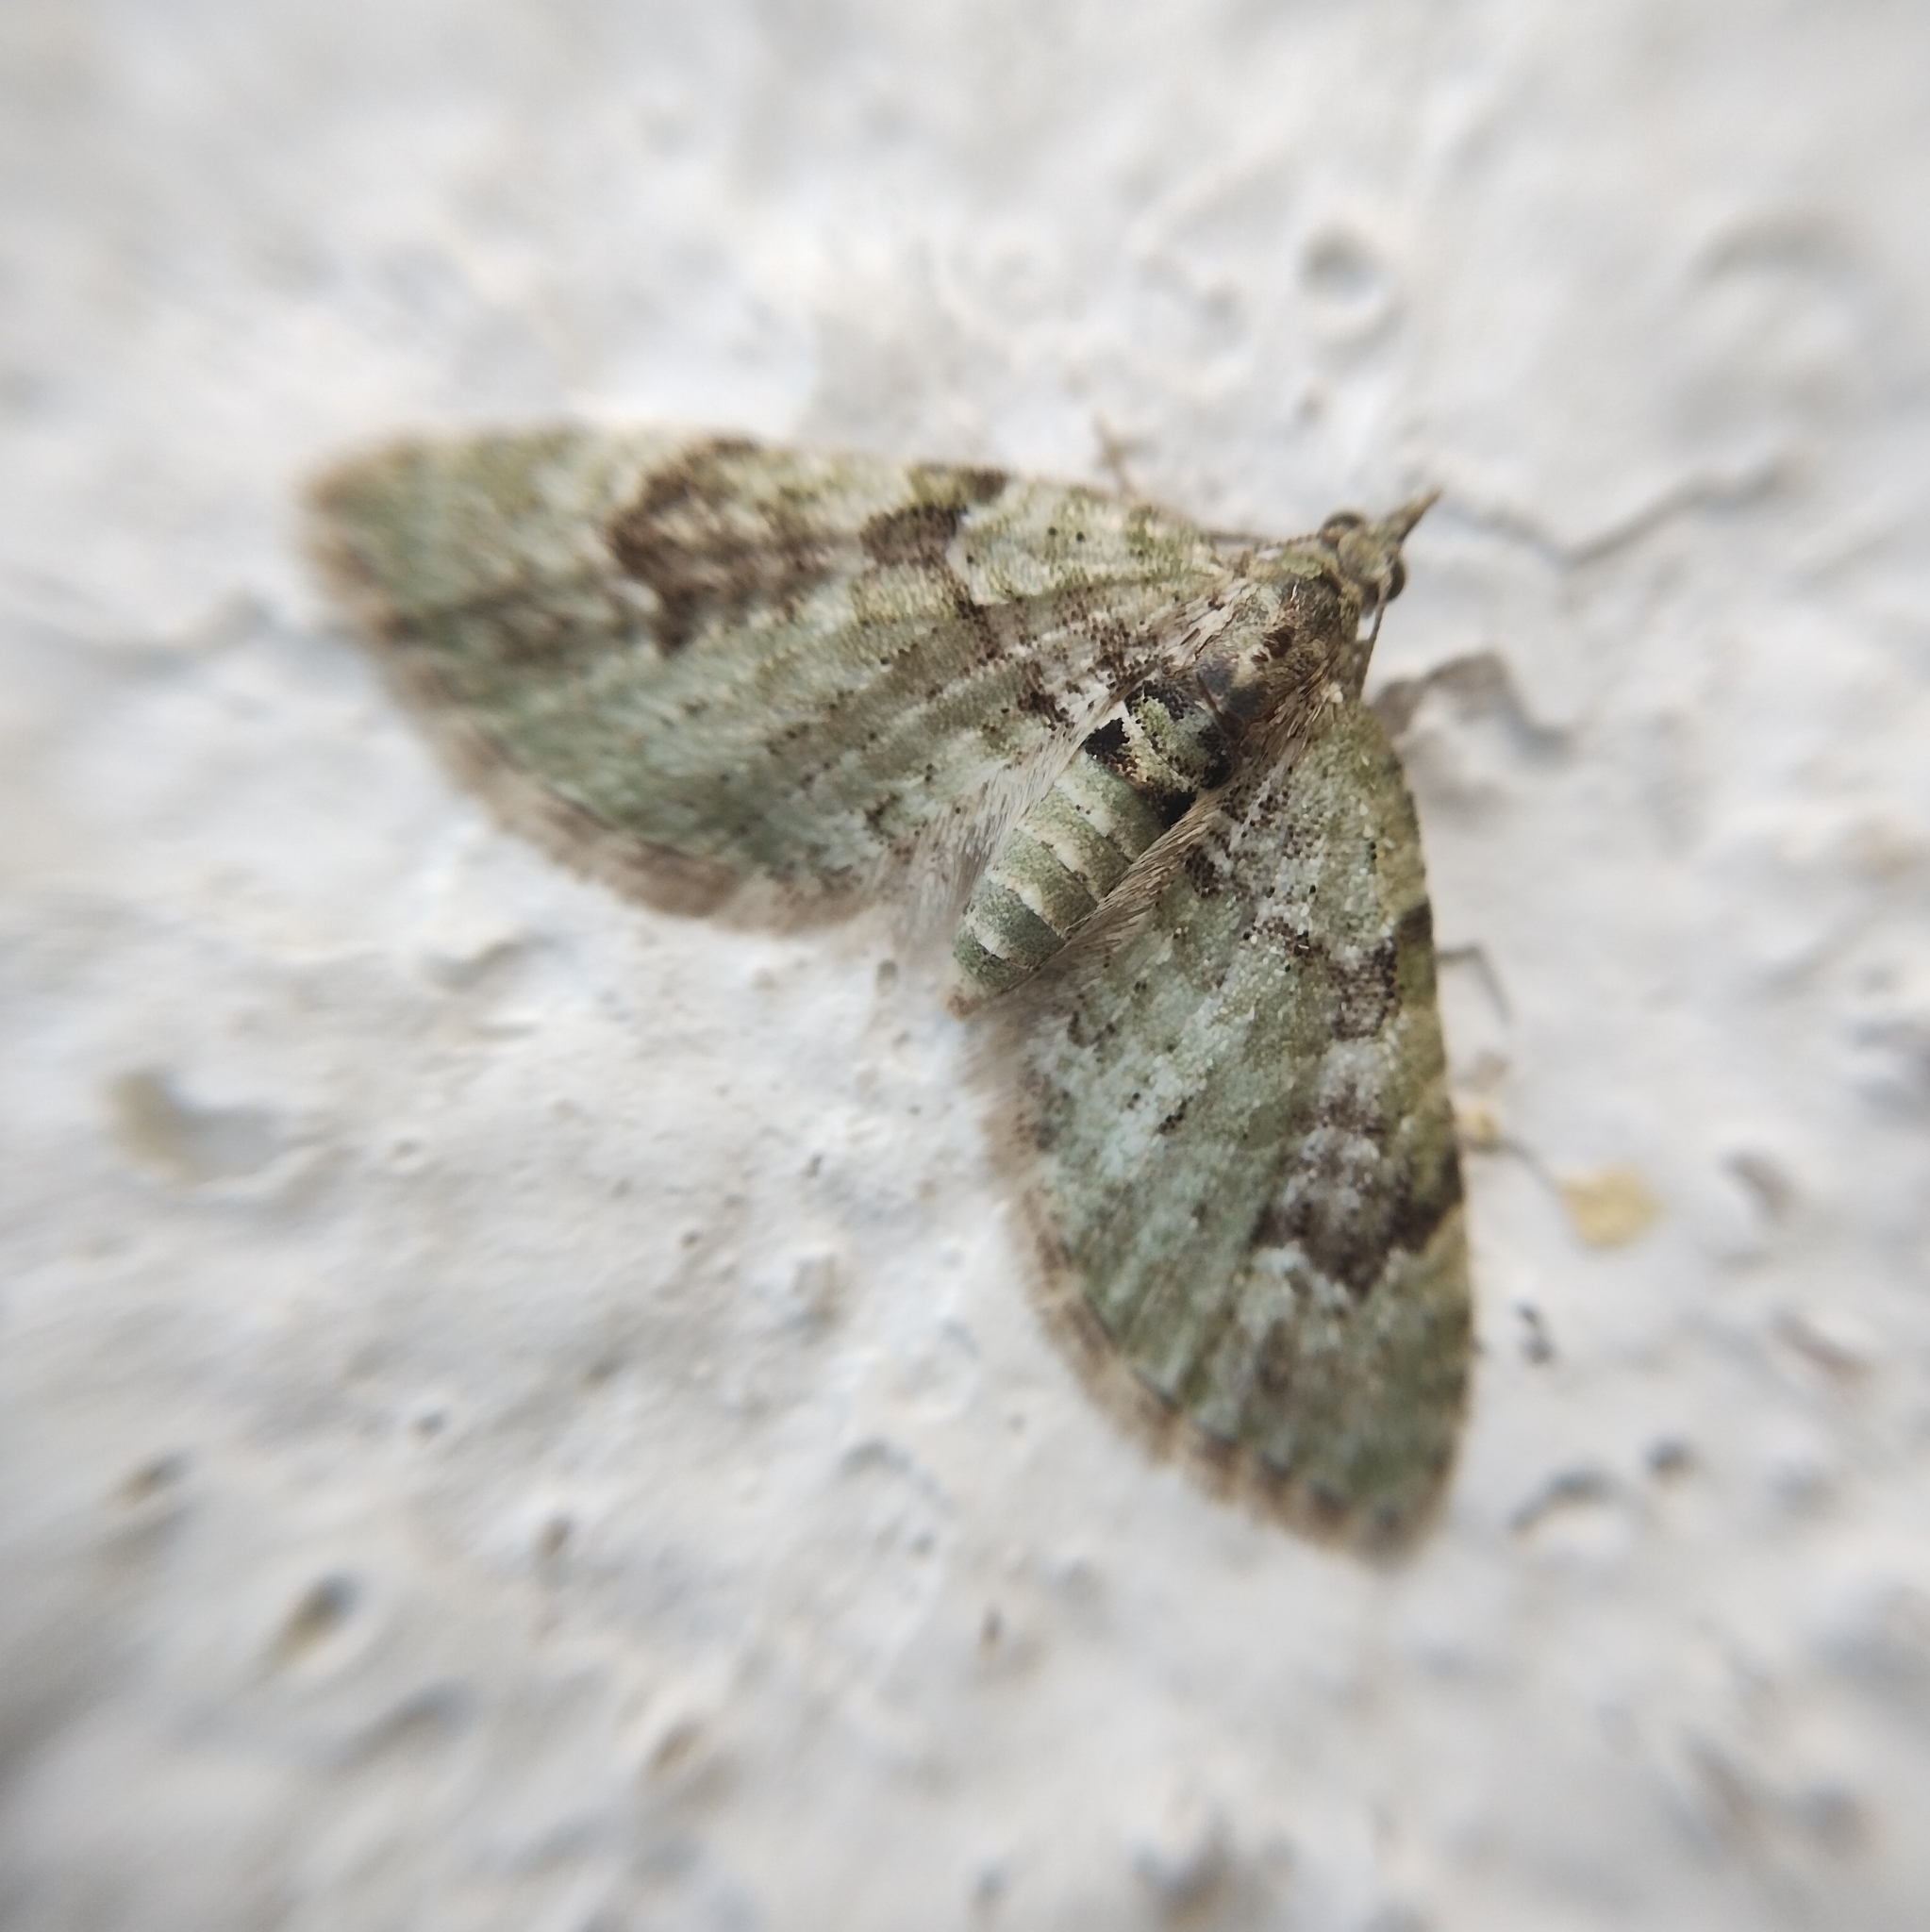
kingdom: Animalia
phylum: Arthropoda
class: Insecta
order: Lepidoptera
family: Geometridae
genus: Chloroclystis
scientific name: Chloroclystis v-ata
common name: V-pug
